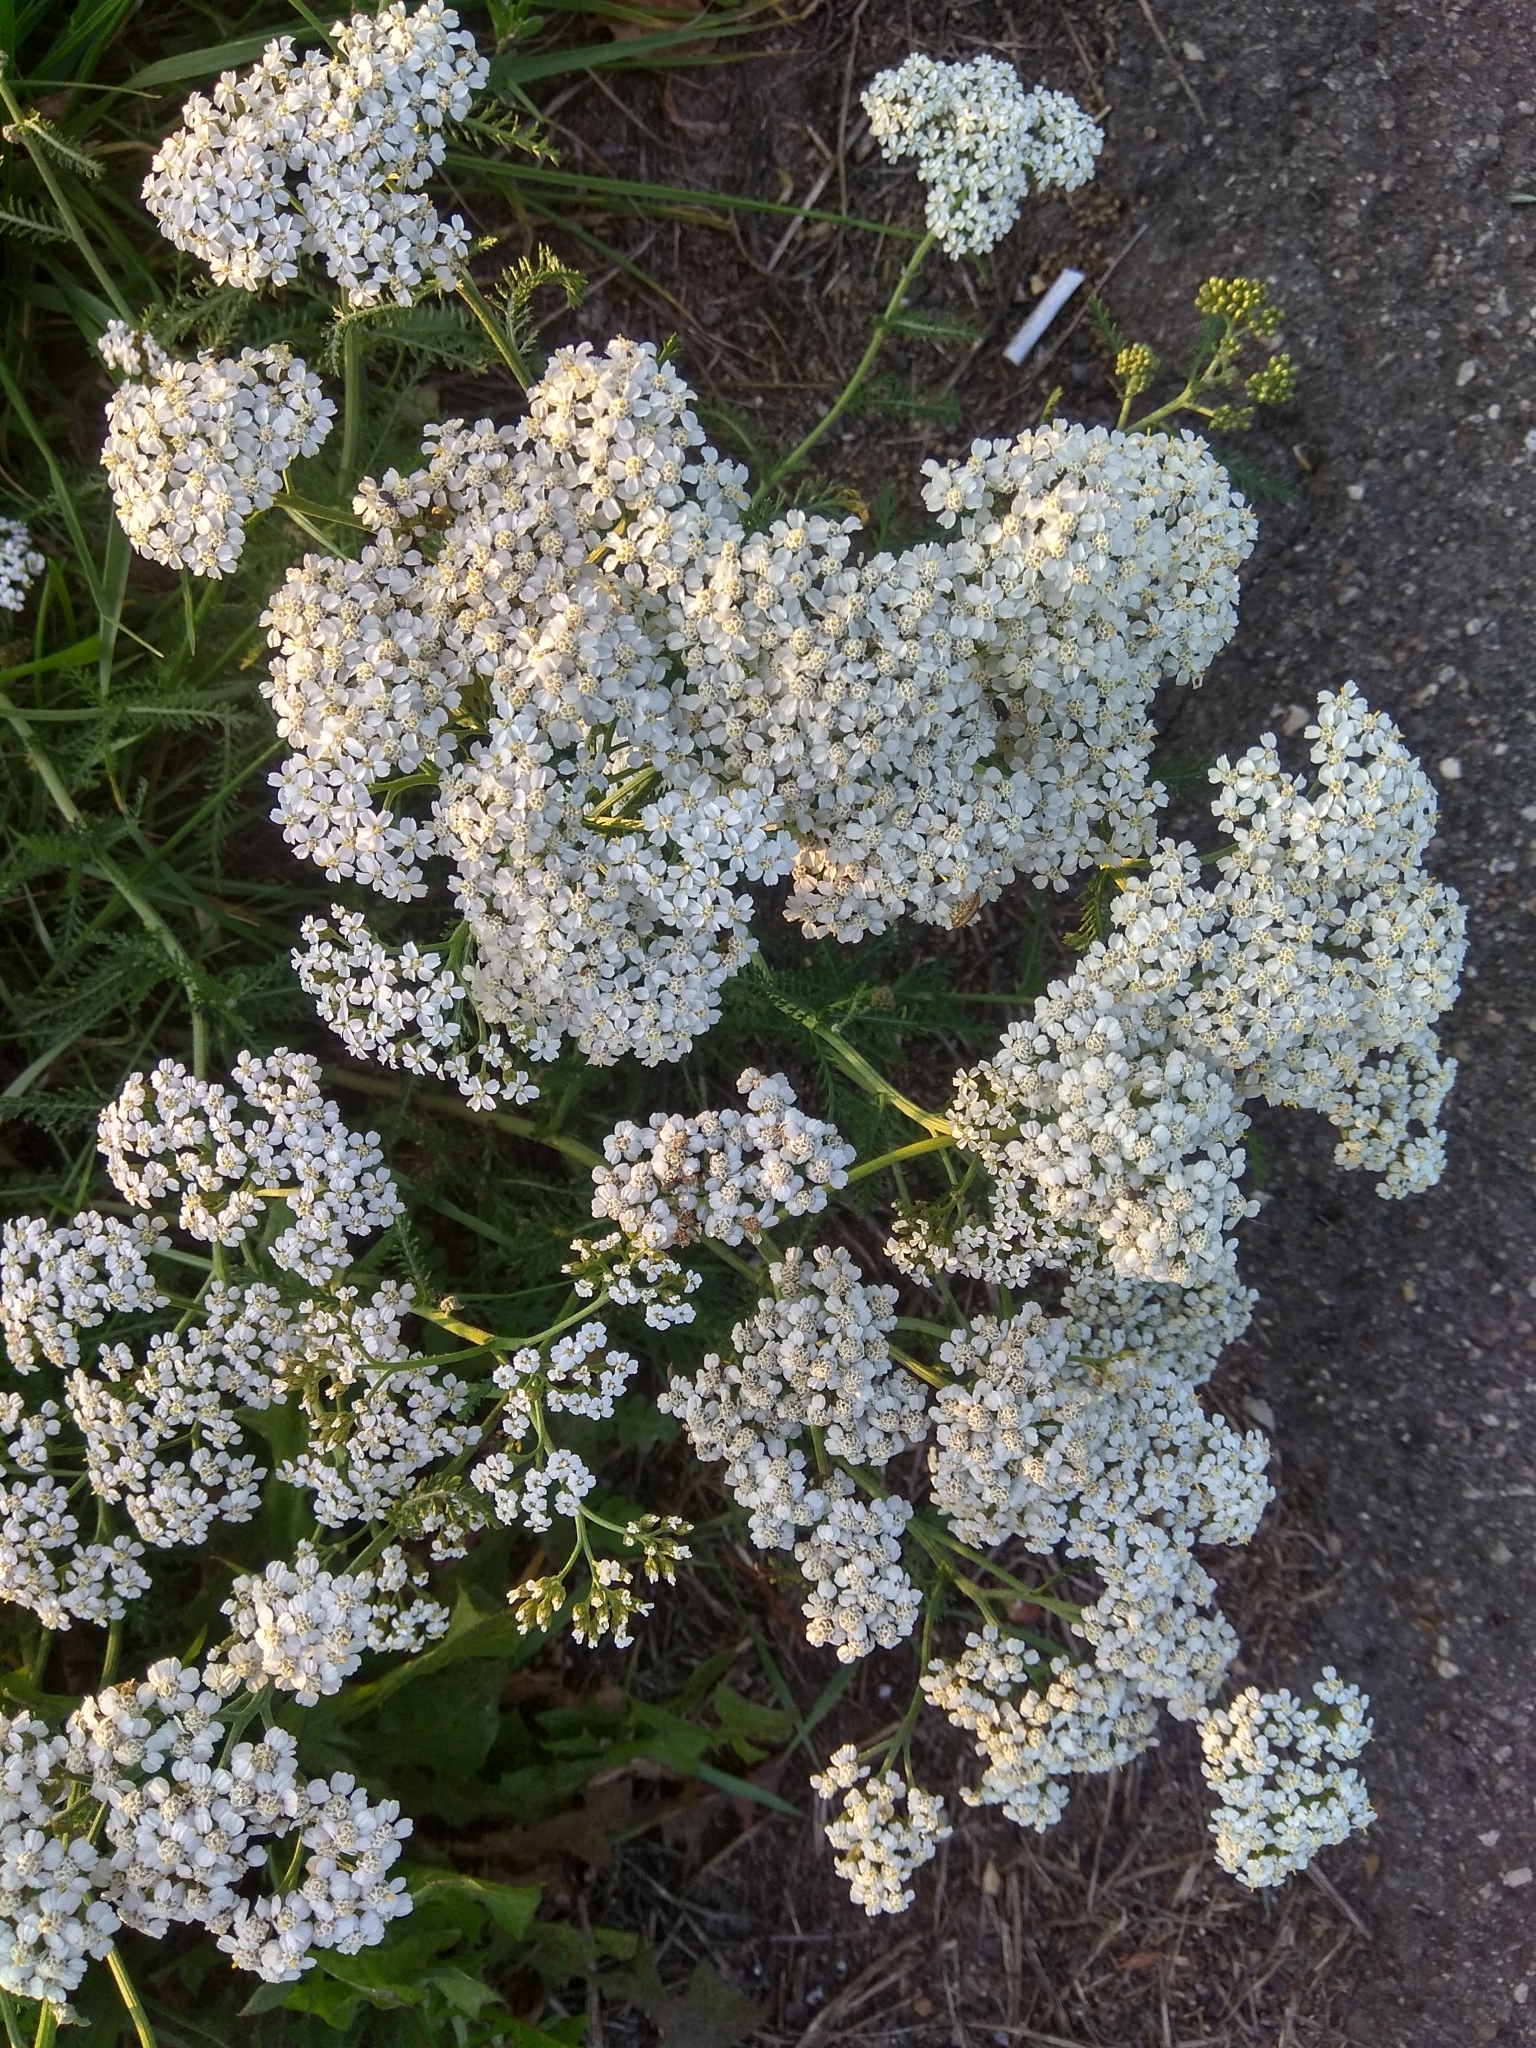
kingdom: Plantae
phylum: Tracheophyta
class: Magnoliopsida
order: Asterales
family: Asteraceae
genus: Achillea
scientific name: Achillea millefolium
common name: Yarrow
